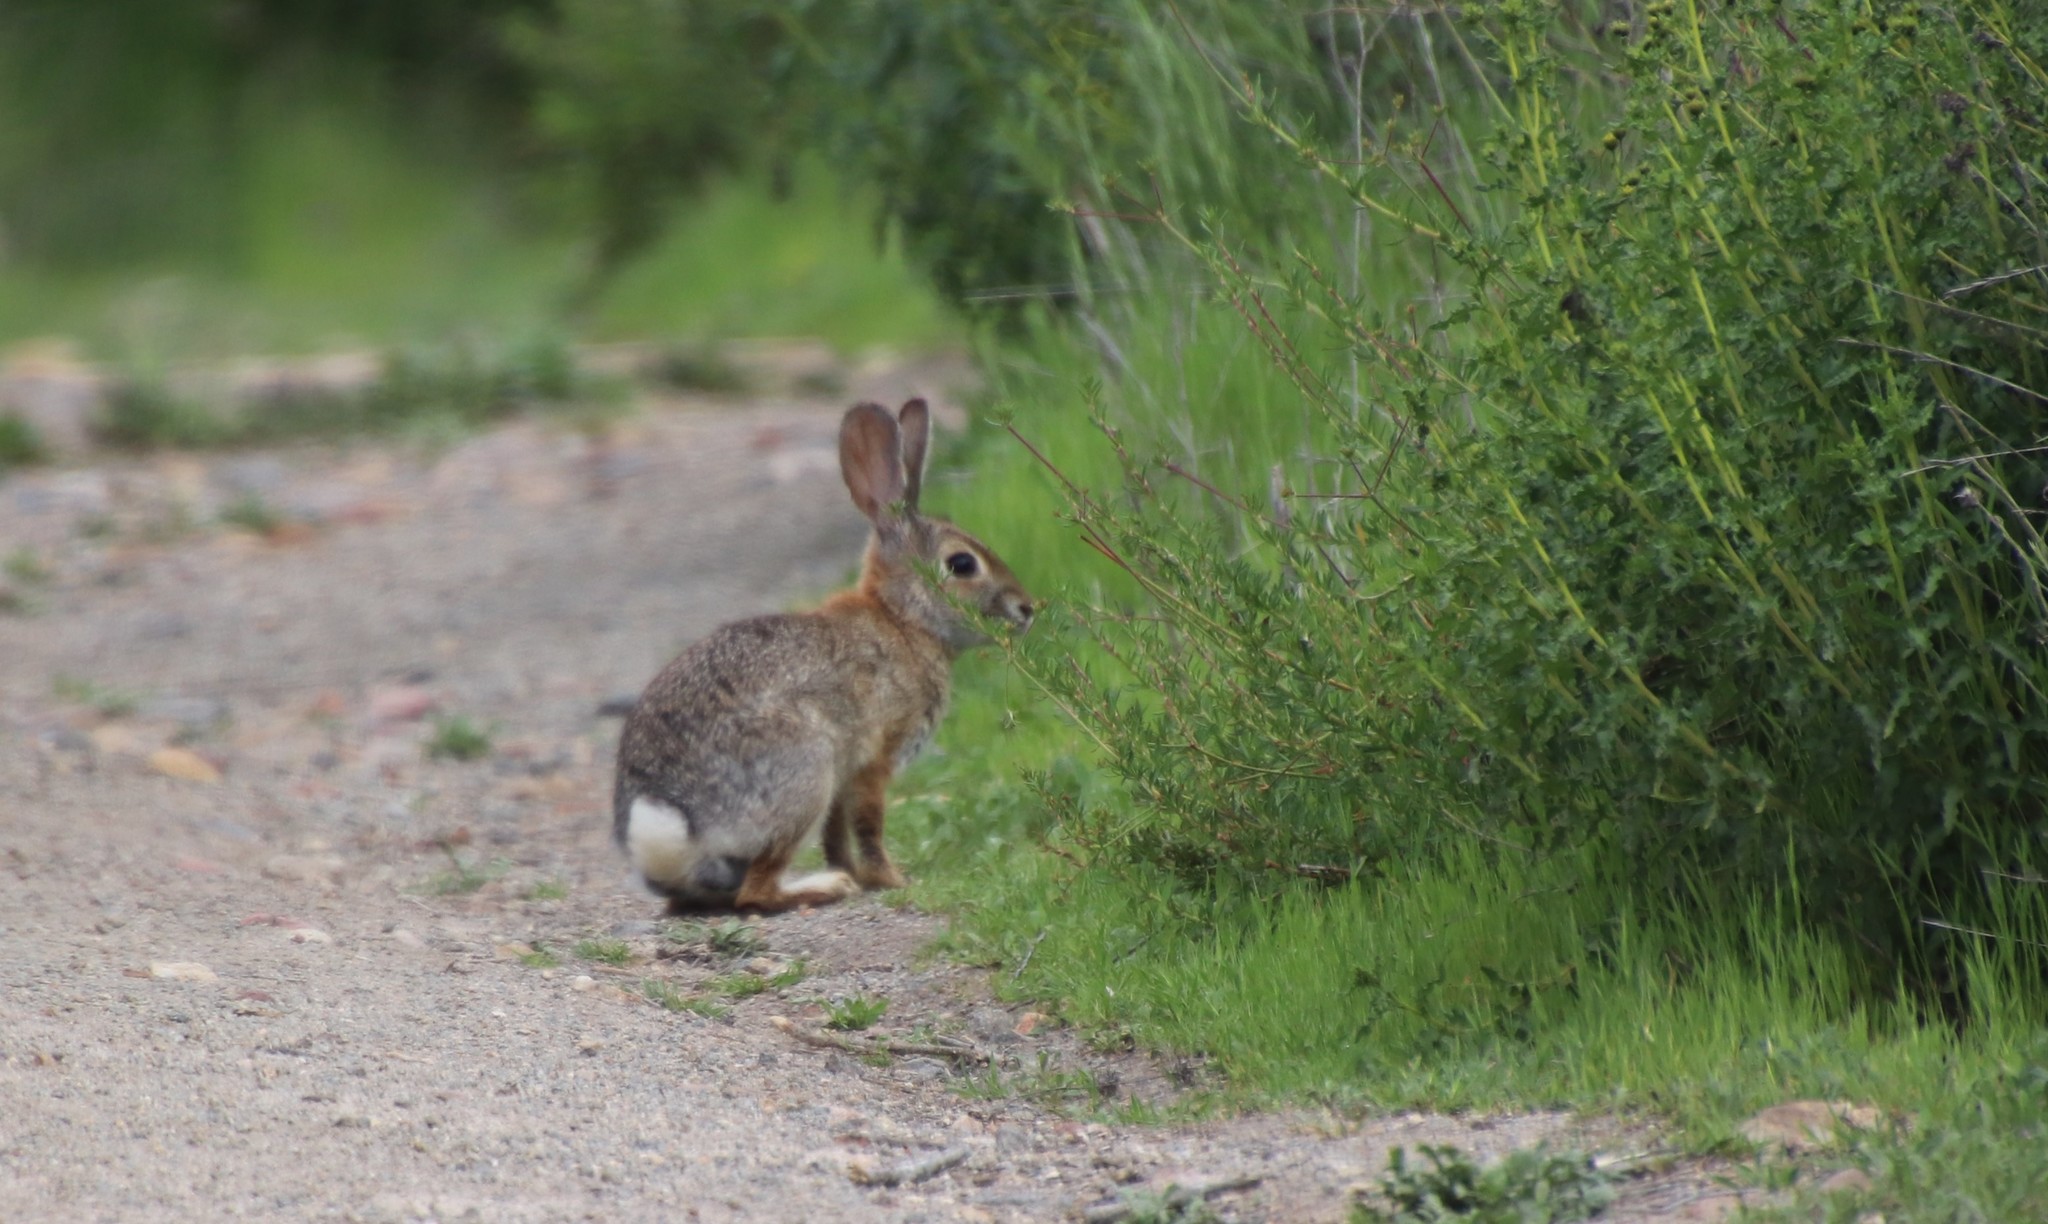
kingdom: Animalia
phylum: Chordata
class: Mammalia
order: Lagomorpha
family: Leporidae
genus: Sylvilagus
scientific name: Sylvilagus audubonii
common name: Desert cottontail
